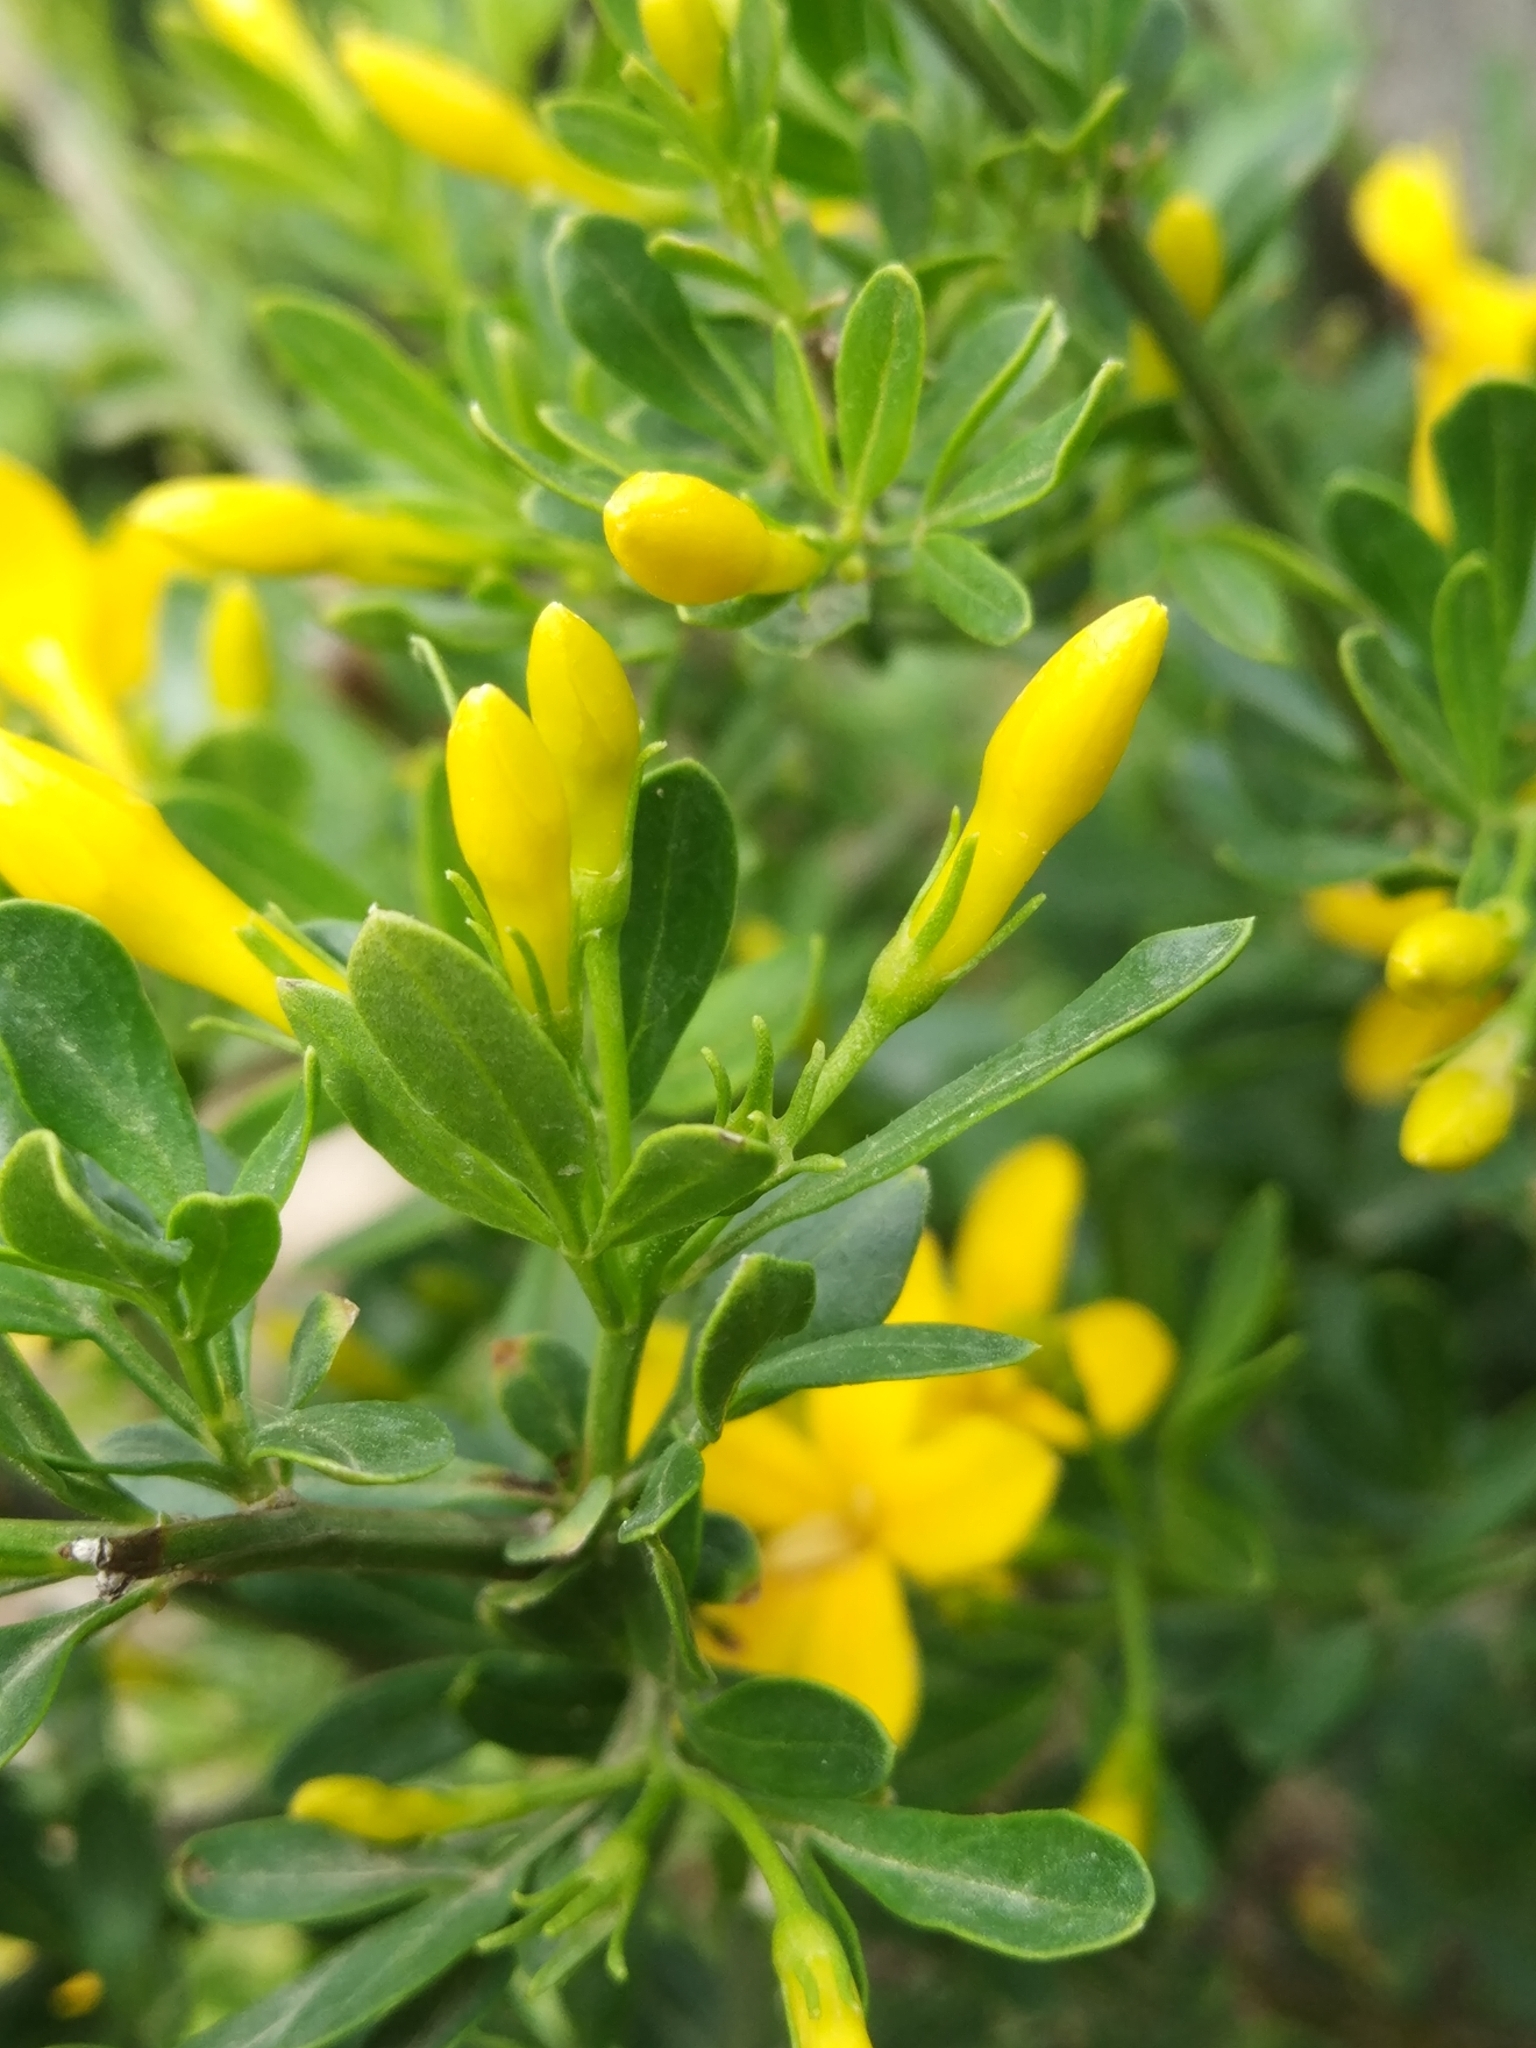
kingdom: Plantae
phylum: Tracheophyta
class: Magnoliopsida
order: Lamiales
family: Oleaceae
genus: Chrysojasminum
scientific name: Chrysojasminum fruticans
